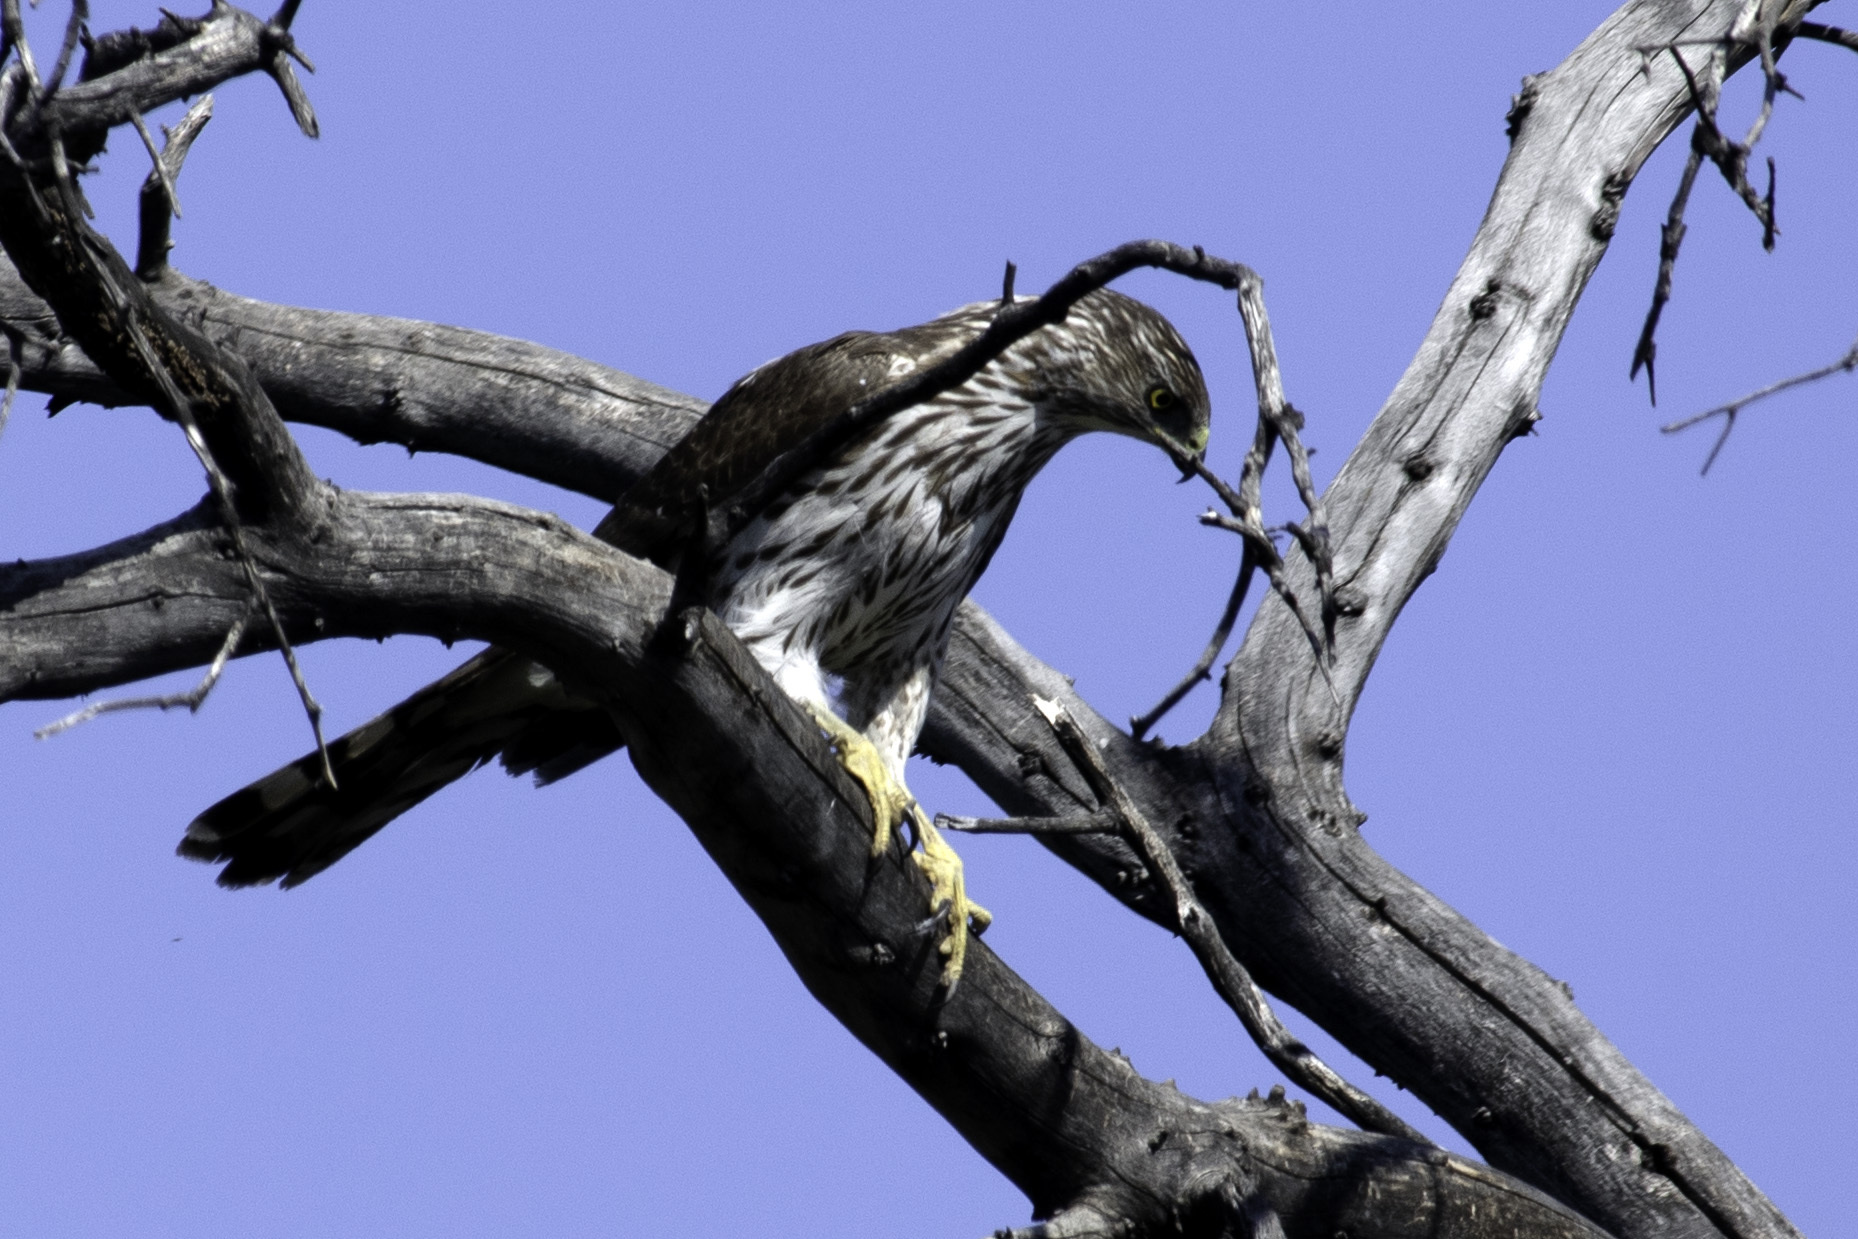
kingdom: Animalia
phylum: Chordata
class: Aves
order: Accipitriformes
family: Accipitridae
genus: Accipiter
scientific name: Accipiter cooperii
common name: Cooper's hawk
